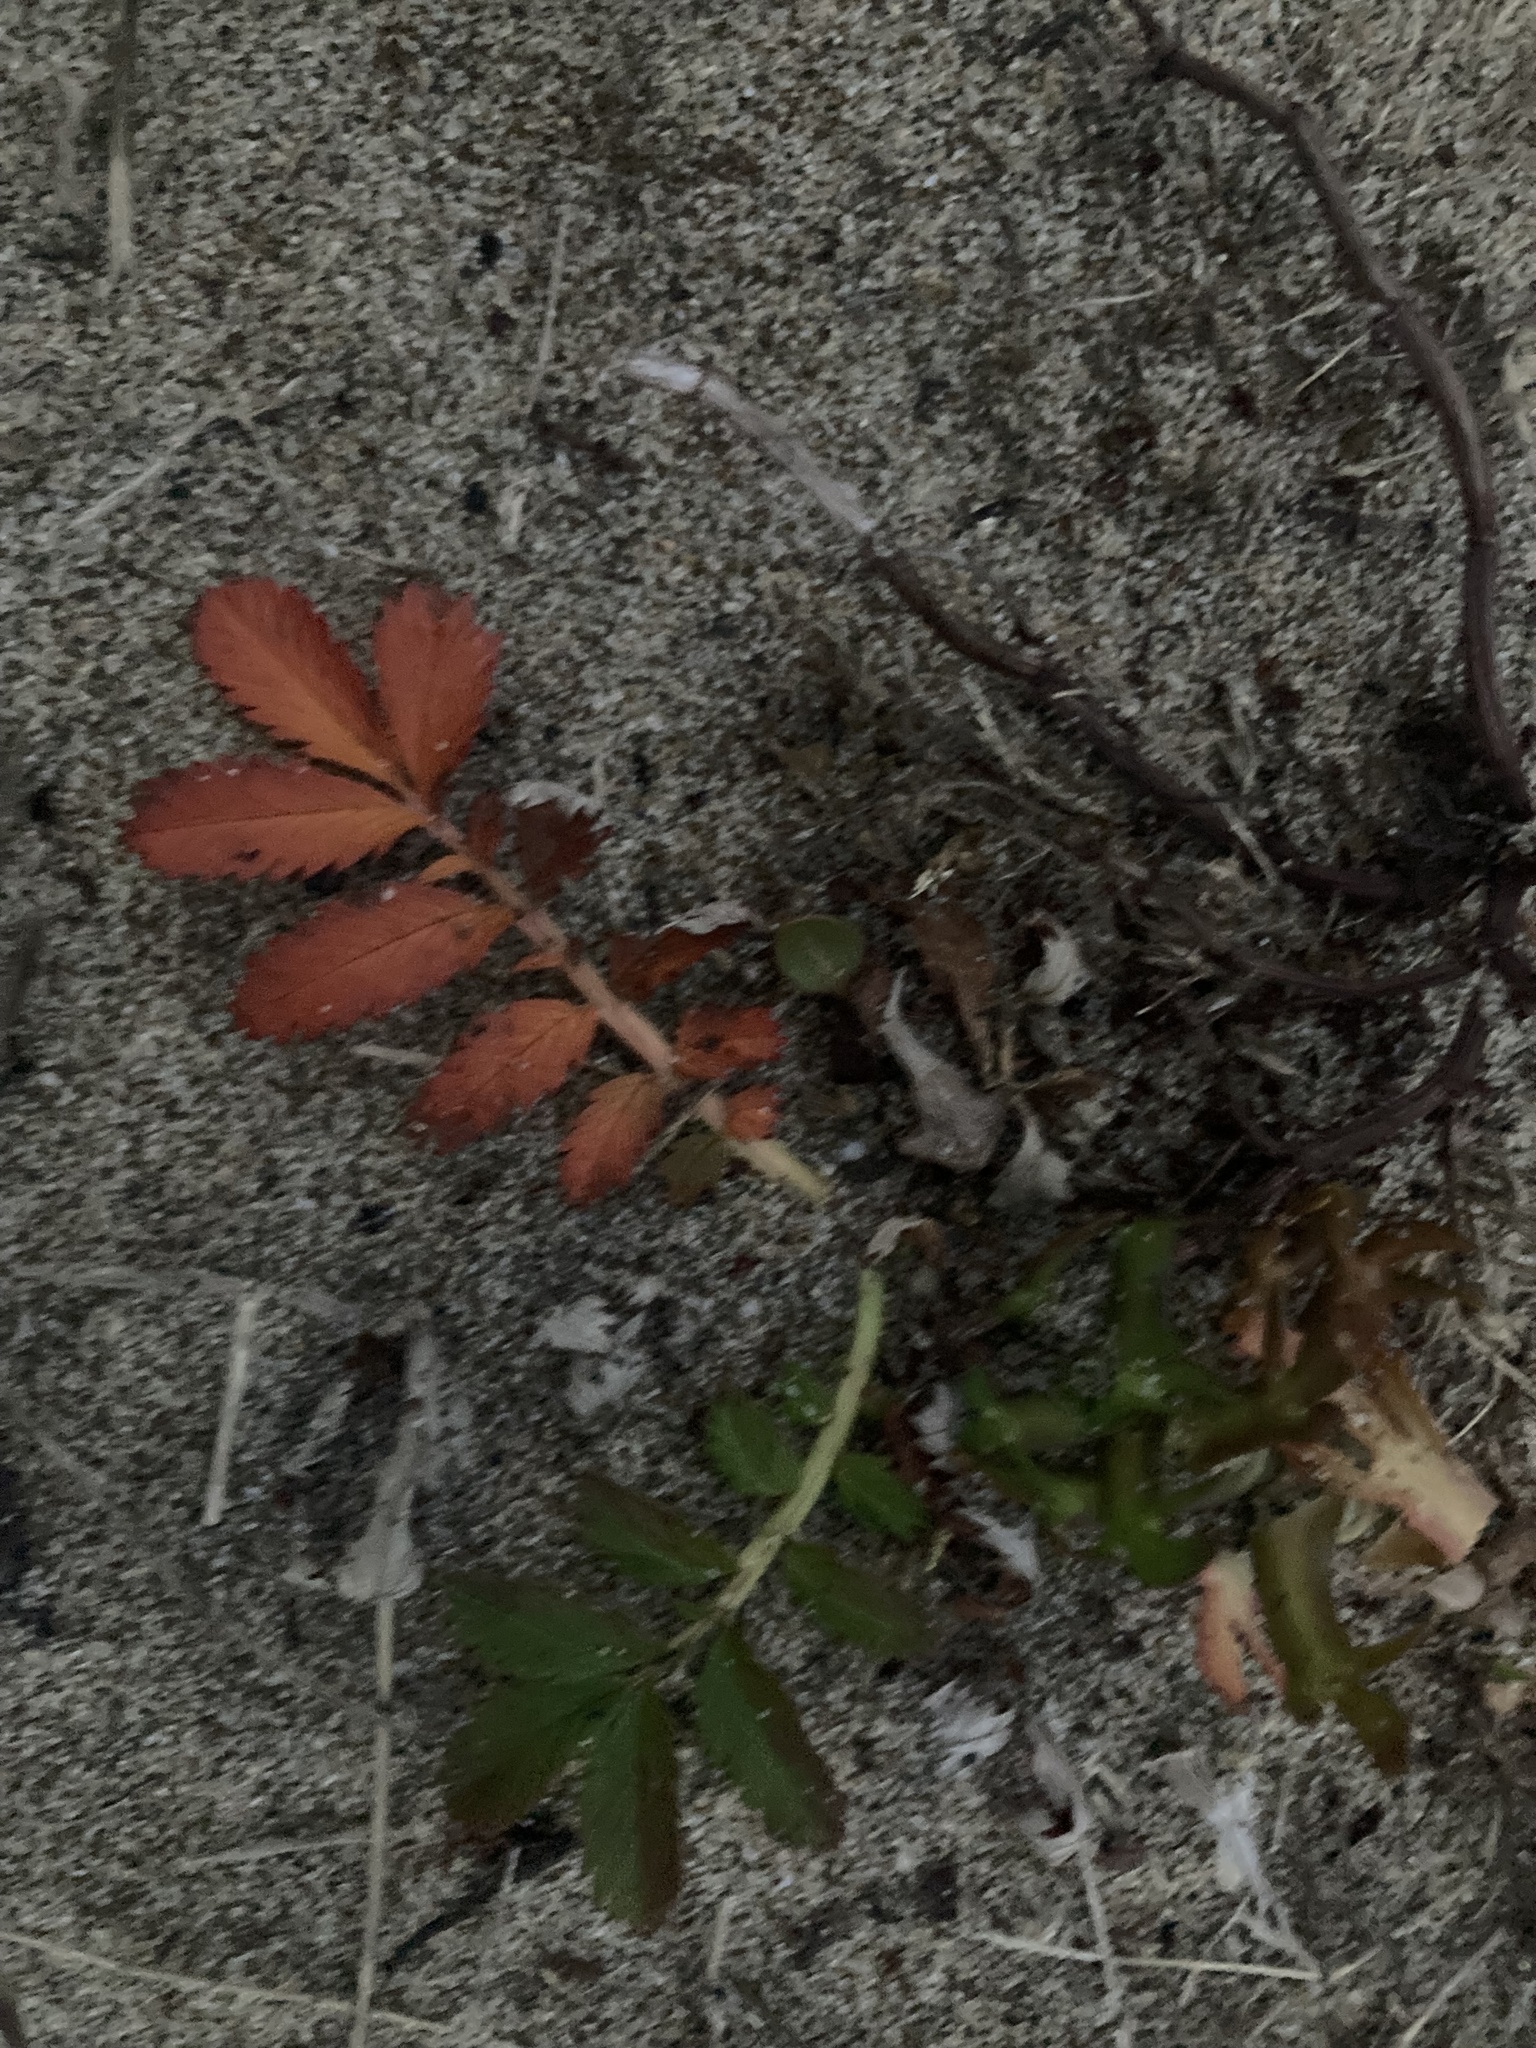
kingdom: Plantae
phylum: Tracheophyta
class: Magnoliopsida
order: Rosales
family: Rosaceae
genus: Argentina
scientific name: Argentina anserina
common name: Common silverweed
